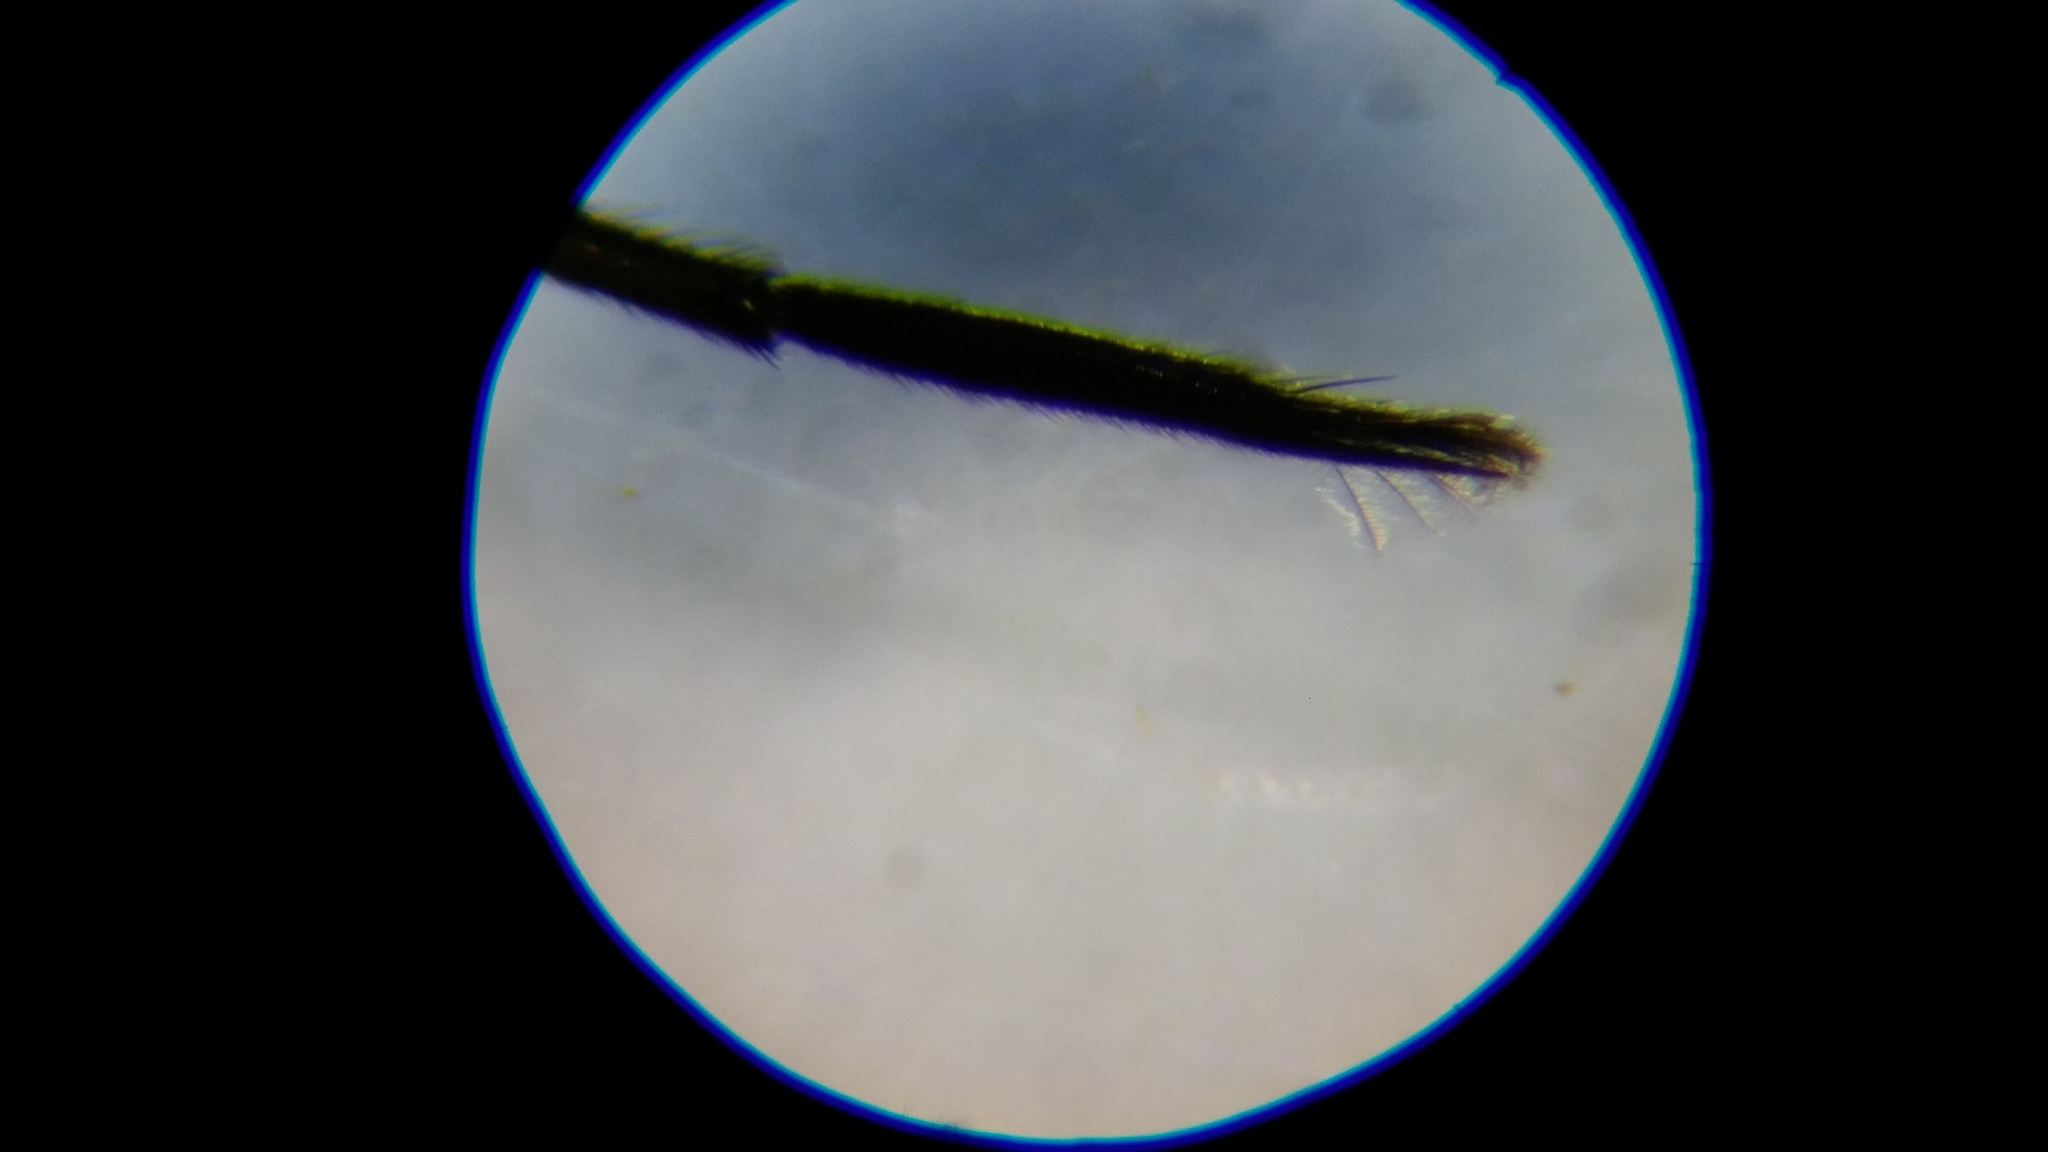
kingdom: Animalia
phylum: Arthropoda
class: Insecta
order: Hemiptera
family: Veliidae
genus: Rhagovelia
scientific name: Rhagovelia obesa
